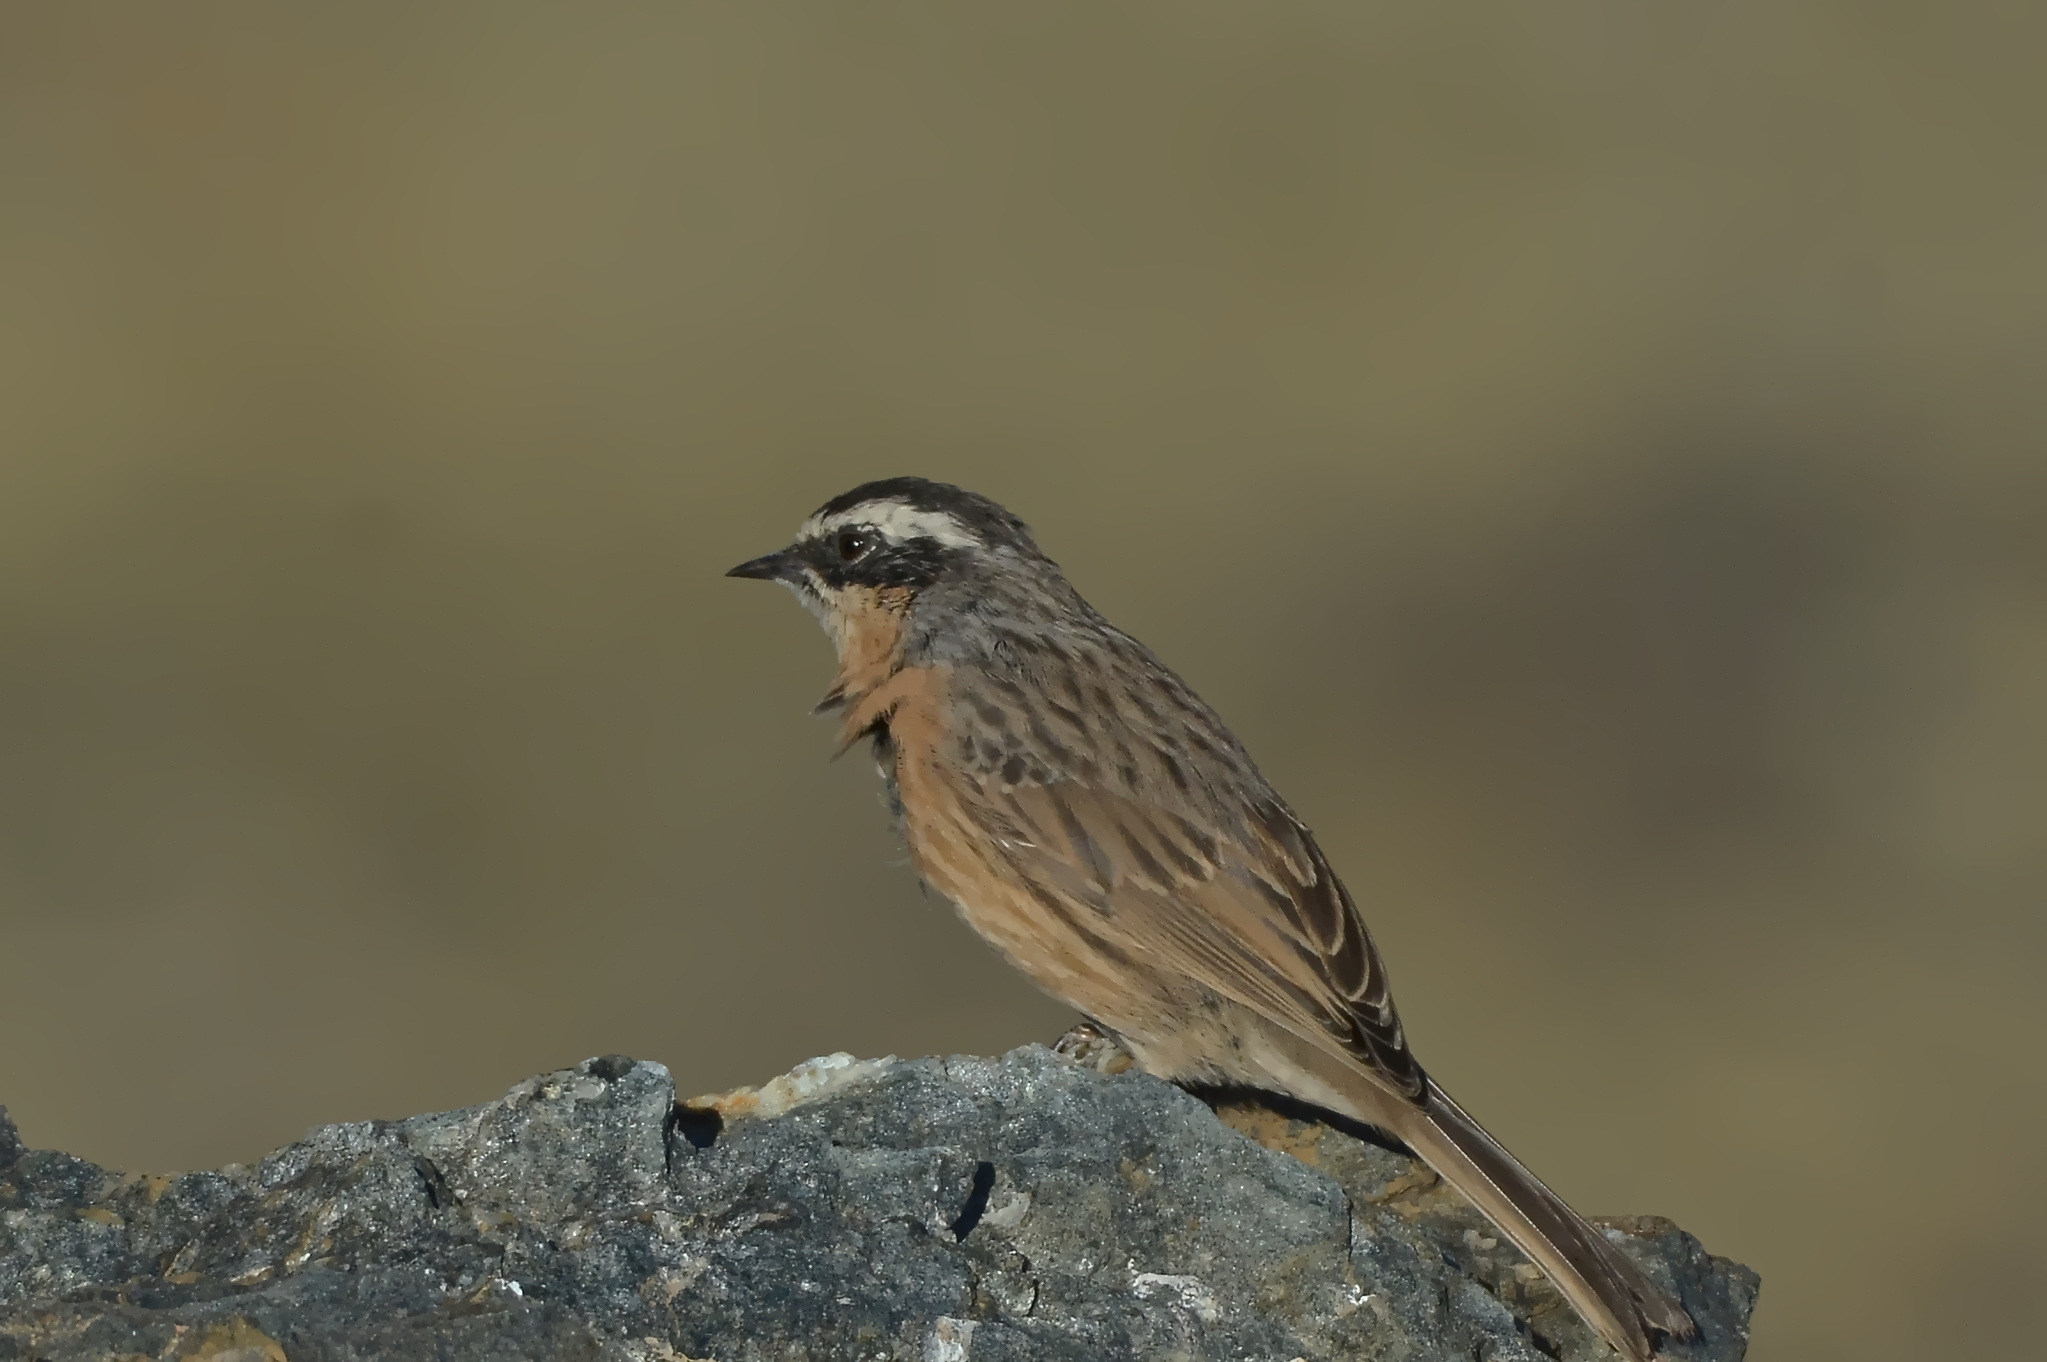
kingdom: Animalia
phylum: Chordata
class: Aves
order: Passeriformes
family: Prunellidae
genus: Prunella
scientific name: Prunella fulvescens
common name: Brown accentor
